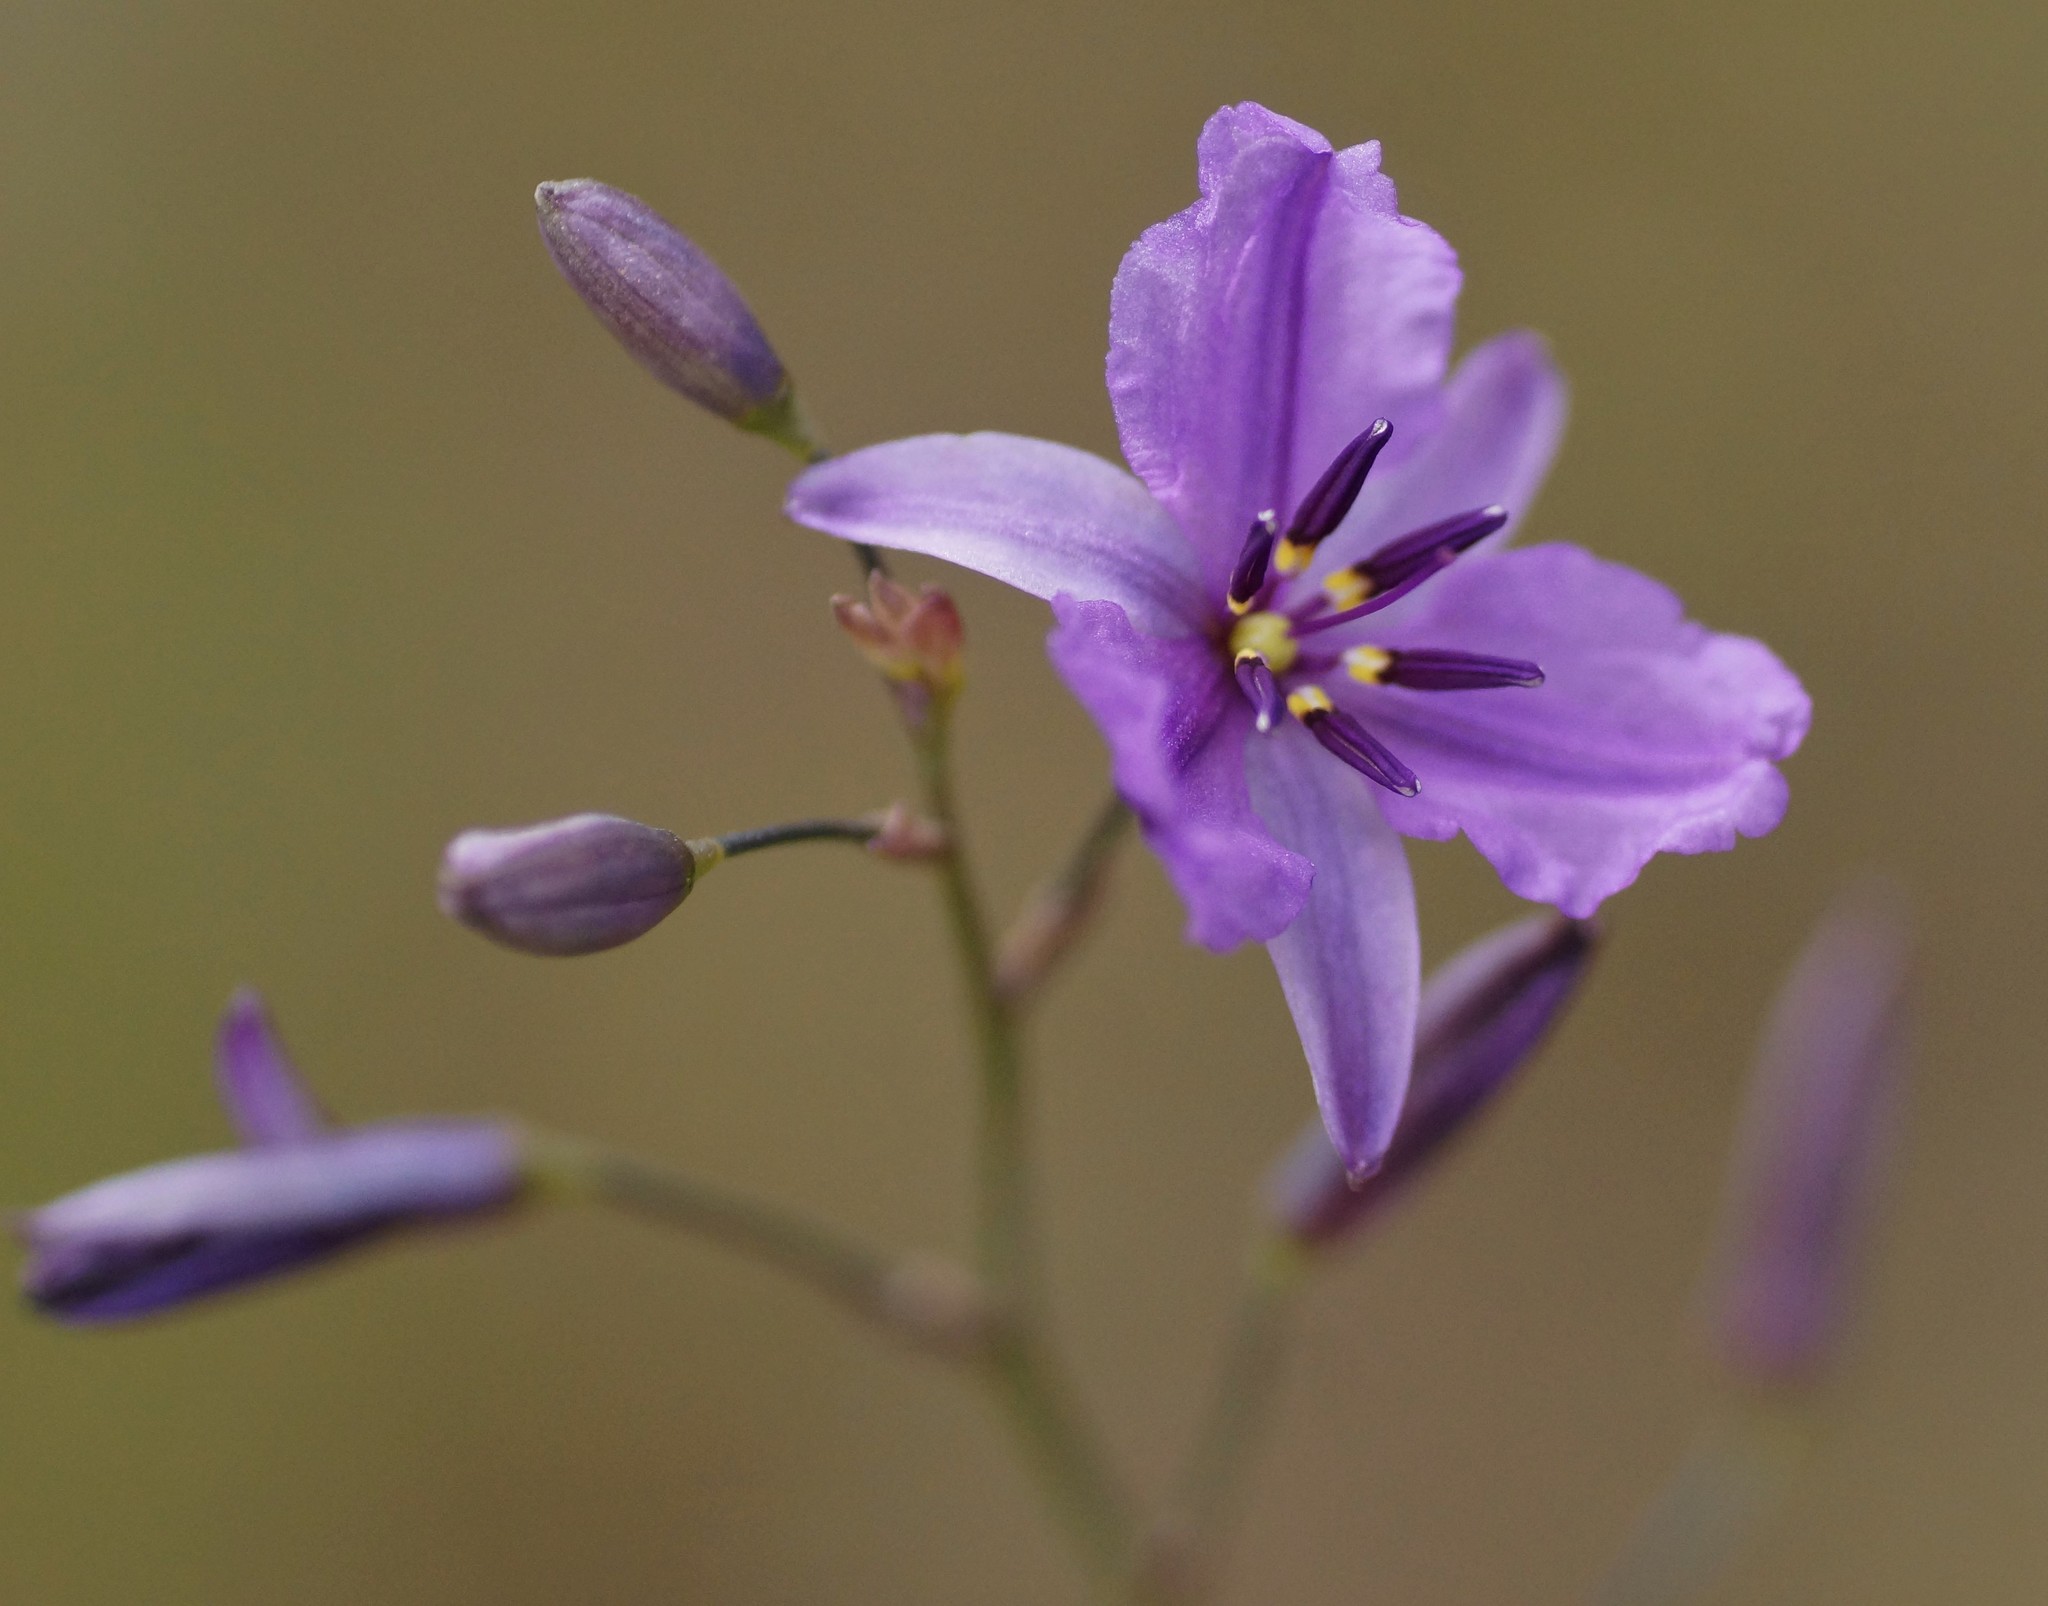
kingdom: Plantae
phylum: Tracheophyta
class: Liliopsida
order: Asparagales
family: Asparagaceae
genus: Arthropodium
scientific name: Arthropodium strictum
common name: Chocolate-lily
